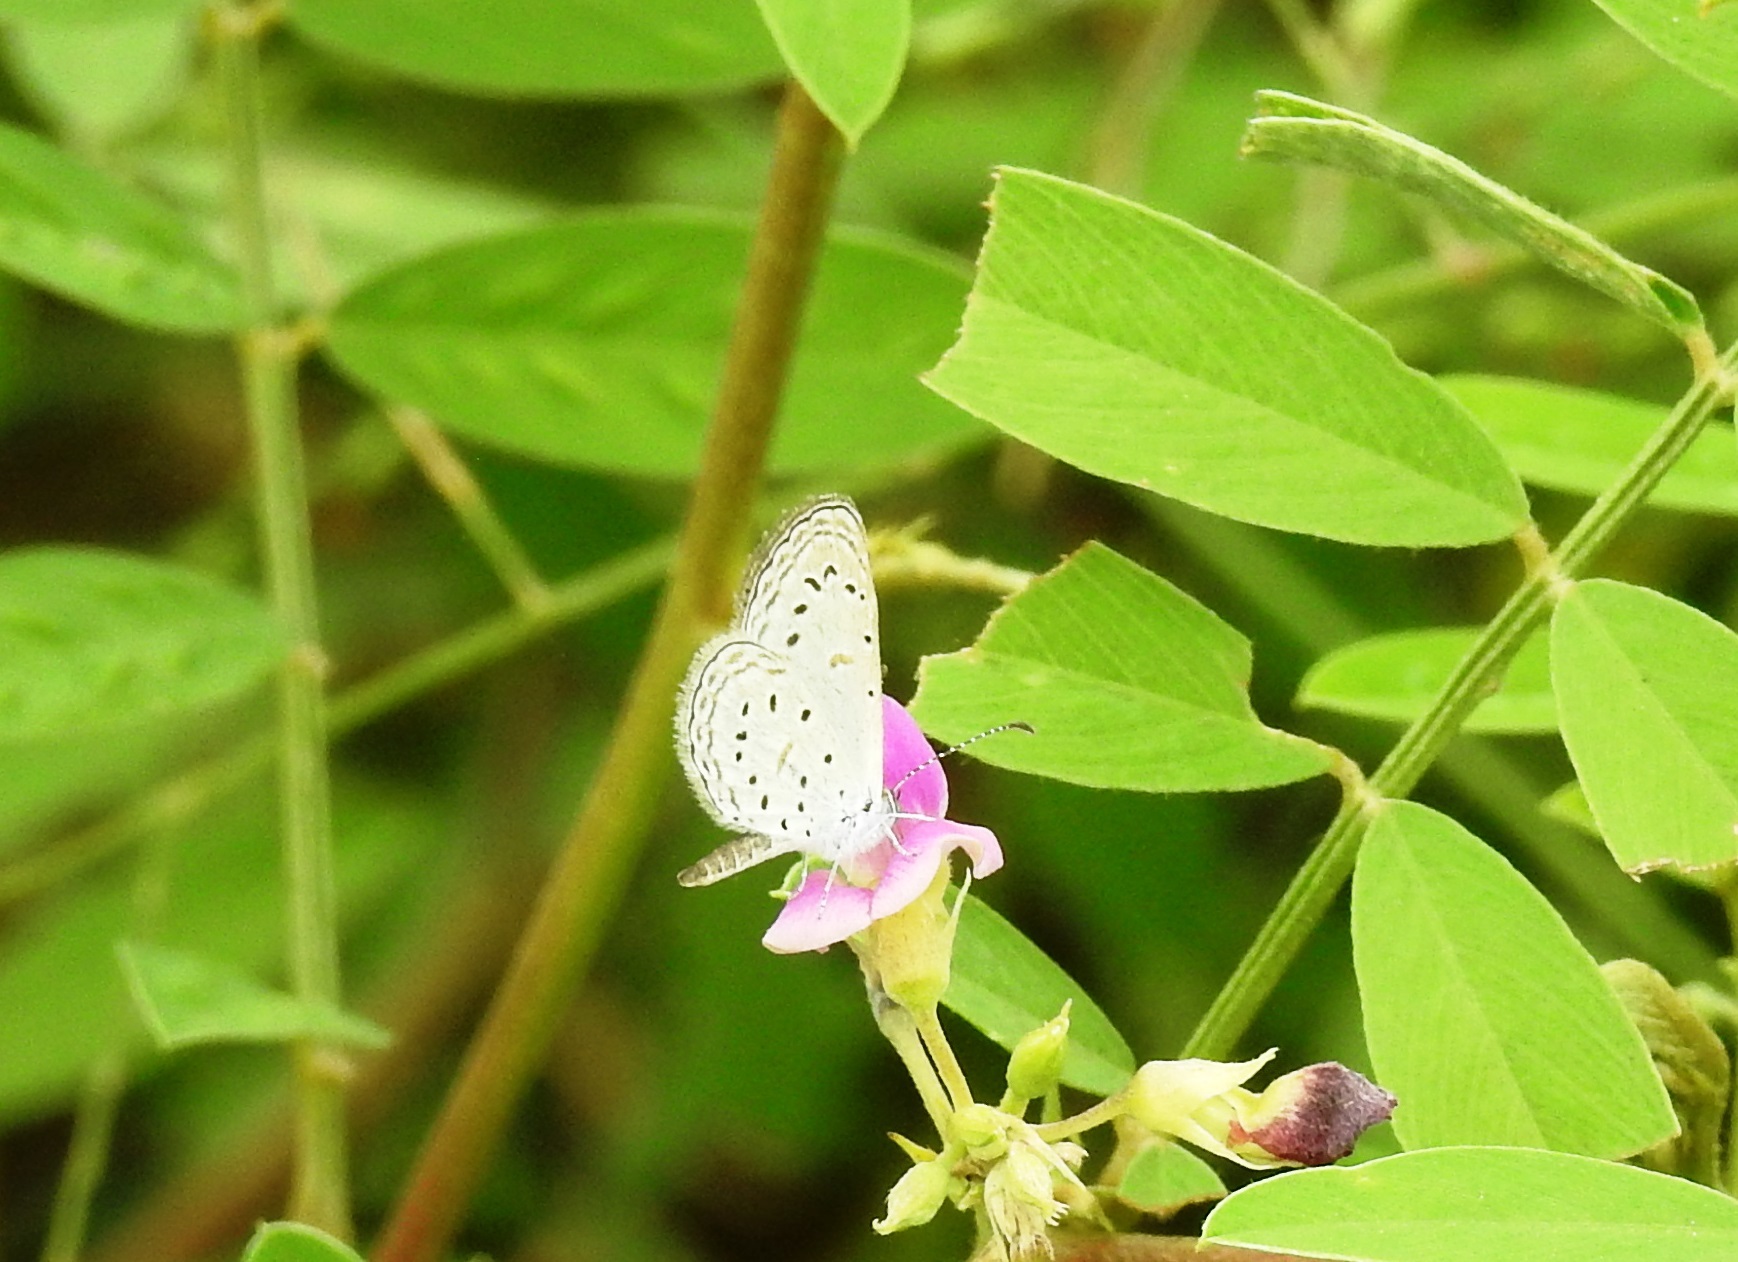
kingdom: Animalia
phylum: Arthropoda
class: Insecta
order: Lepidoptera
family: Lycaenidae
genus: Zizula
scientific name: Zizula hylax
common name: Gaika blue
